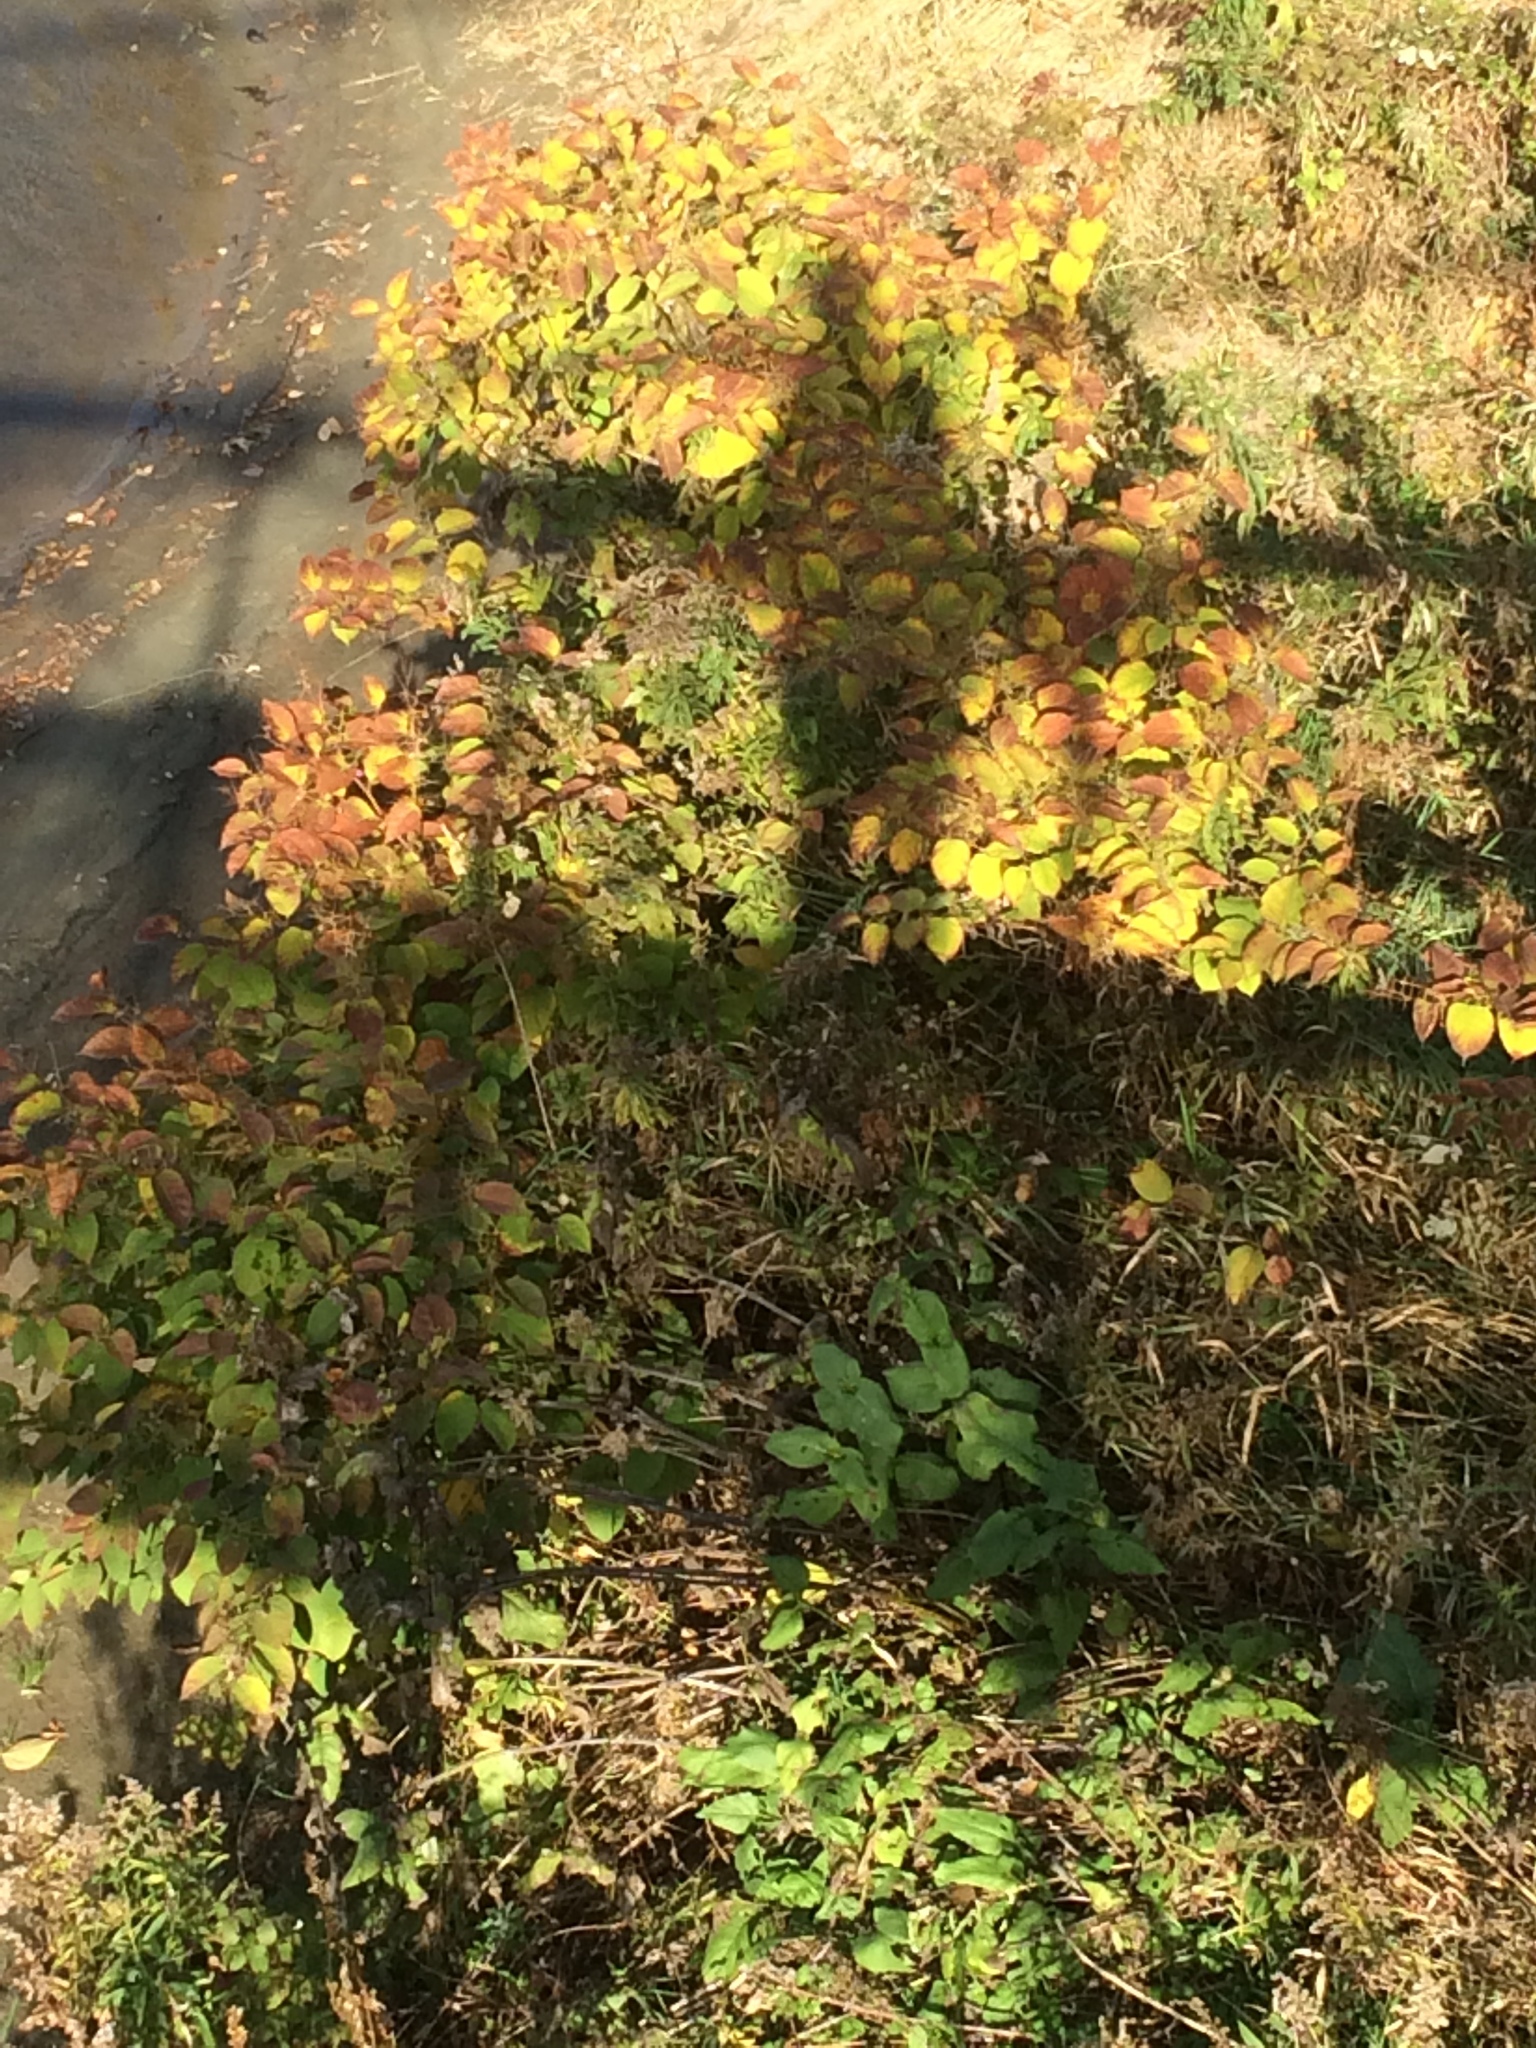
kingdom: Plantae
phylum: Tracheophyta
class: Magnoliopsida
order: Caryophyllales
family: Polygonaceae
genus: Reynoutria
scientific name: Reynoutria japonica
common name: Japanese knotweed
